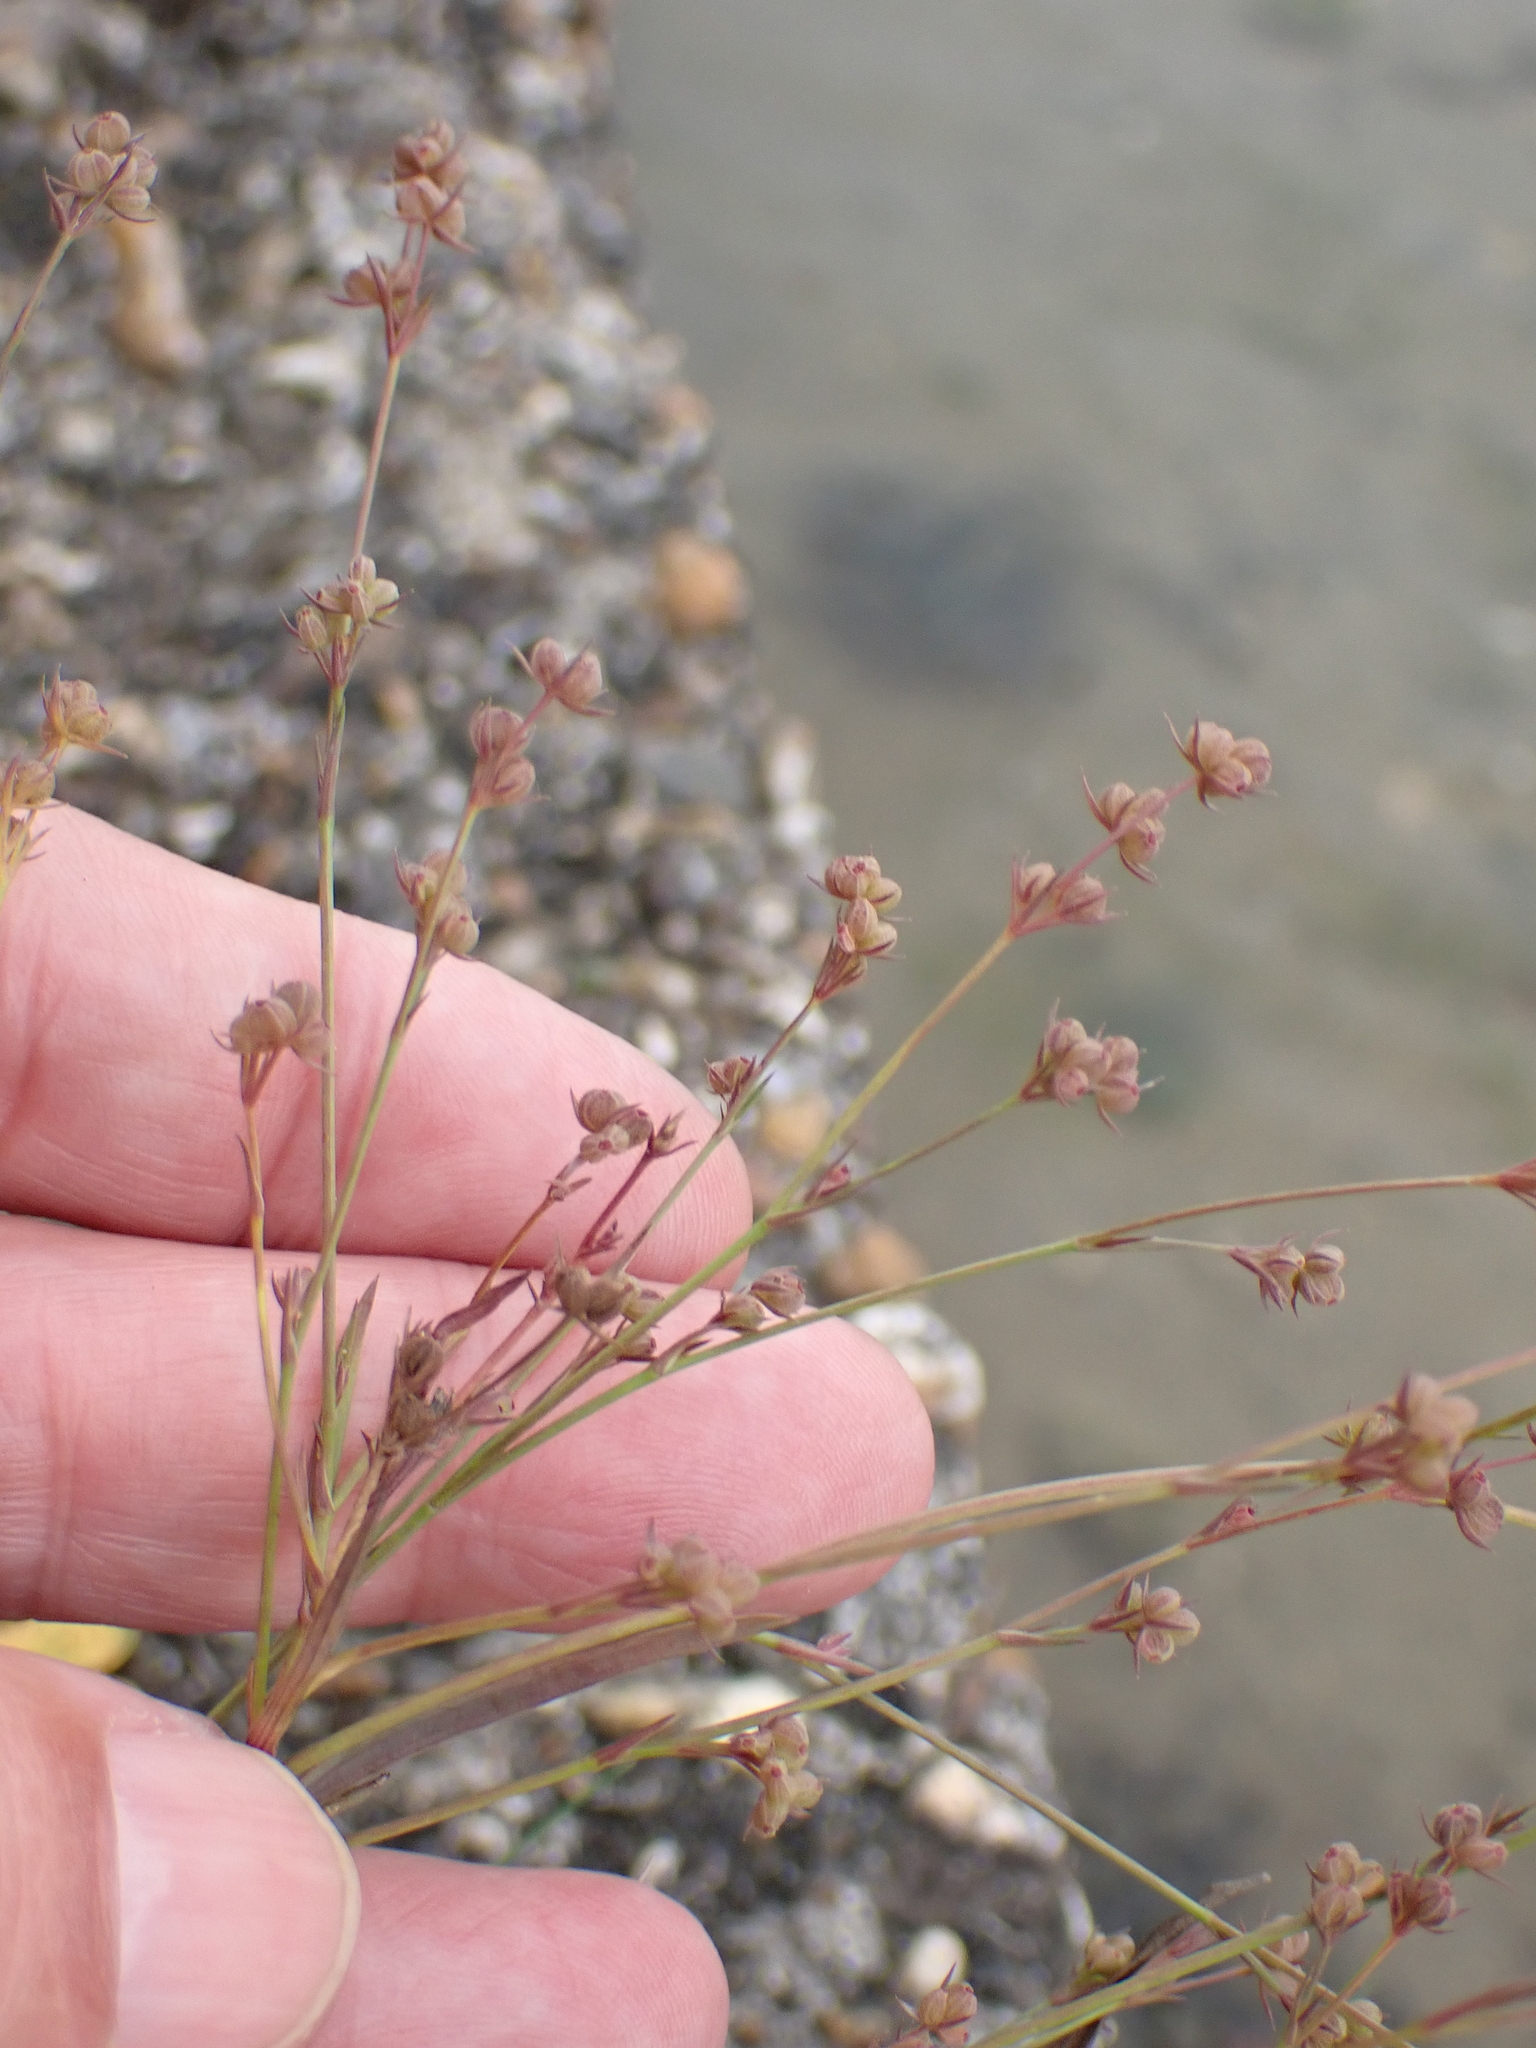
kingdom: Plantae
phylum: Tracheophyta
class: Magnoliopsida
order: Apiales
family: Apiaceae
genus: Bupleurum
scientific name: Bupleurum tenuissimum
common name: Slender hare's-ear
